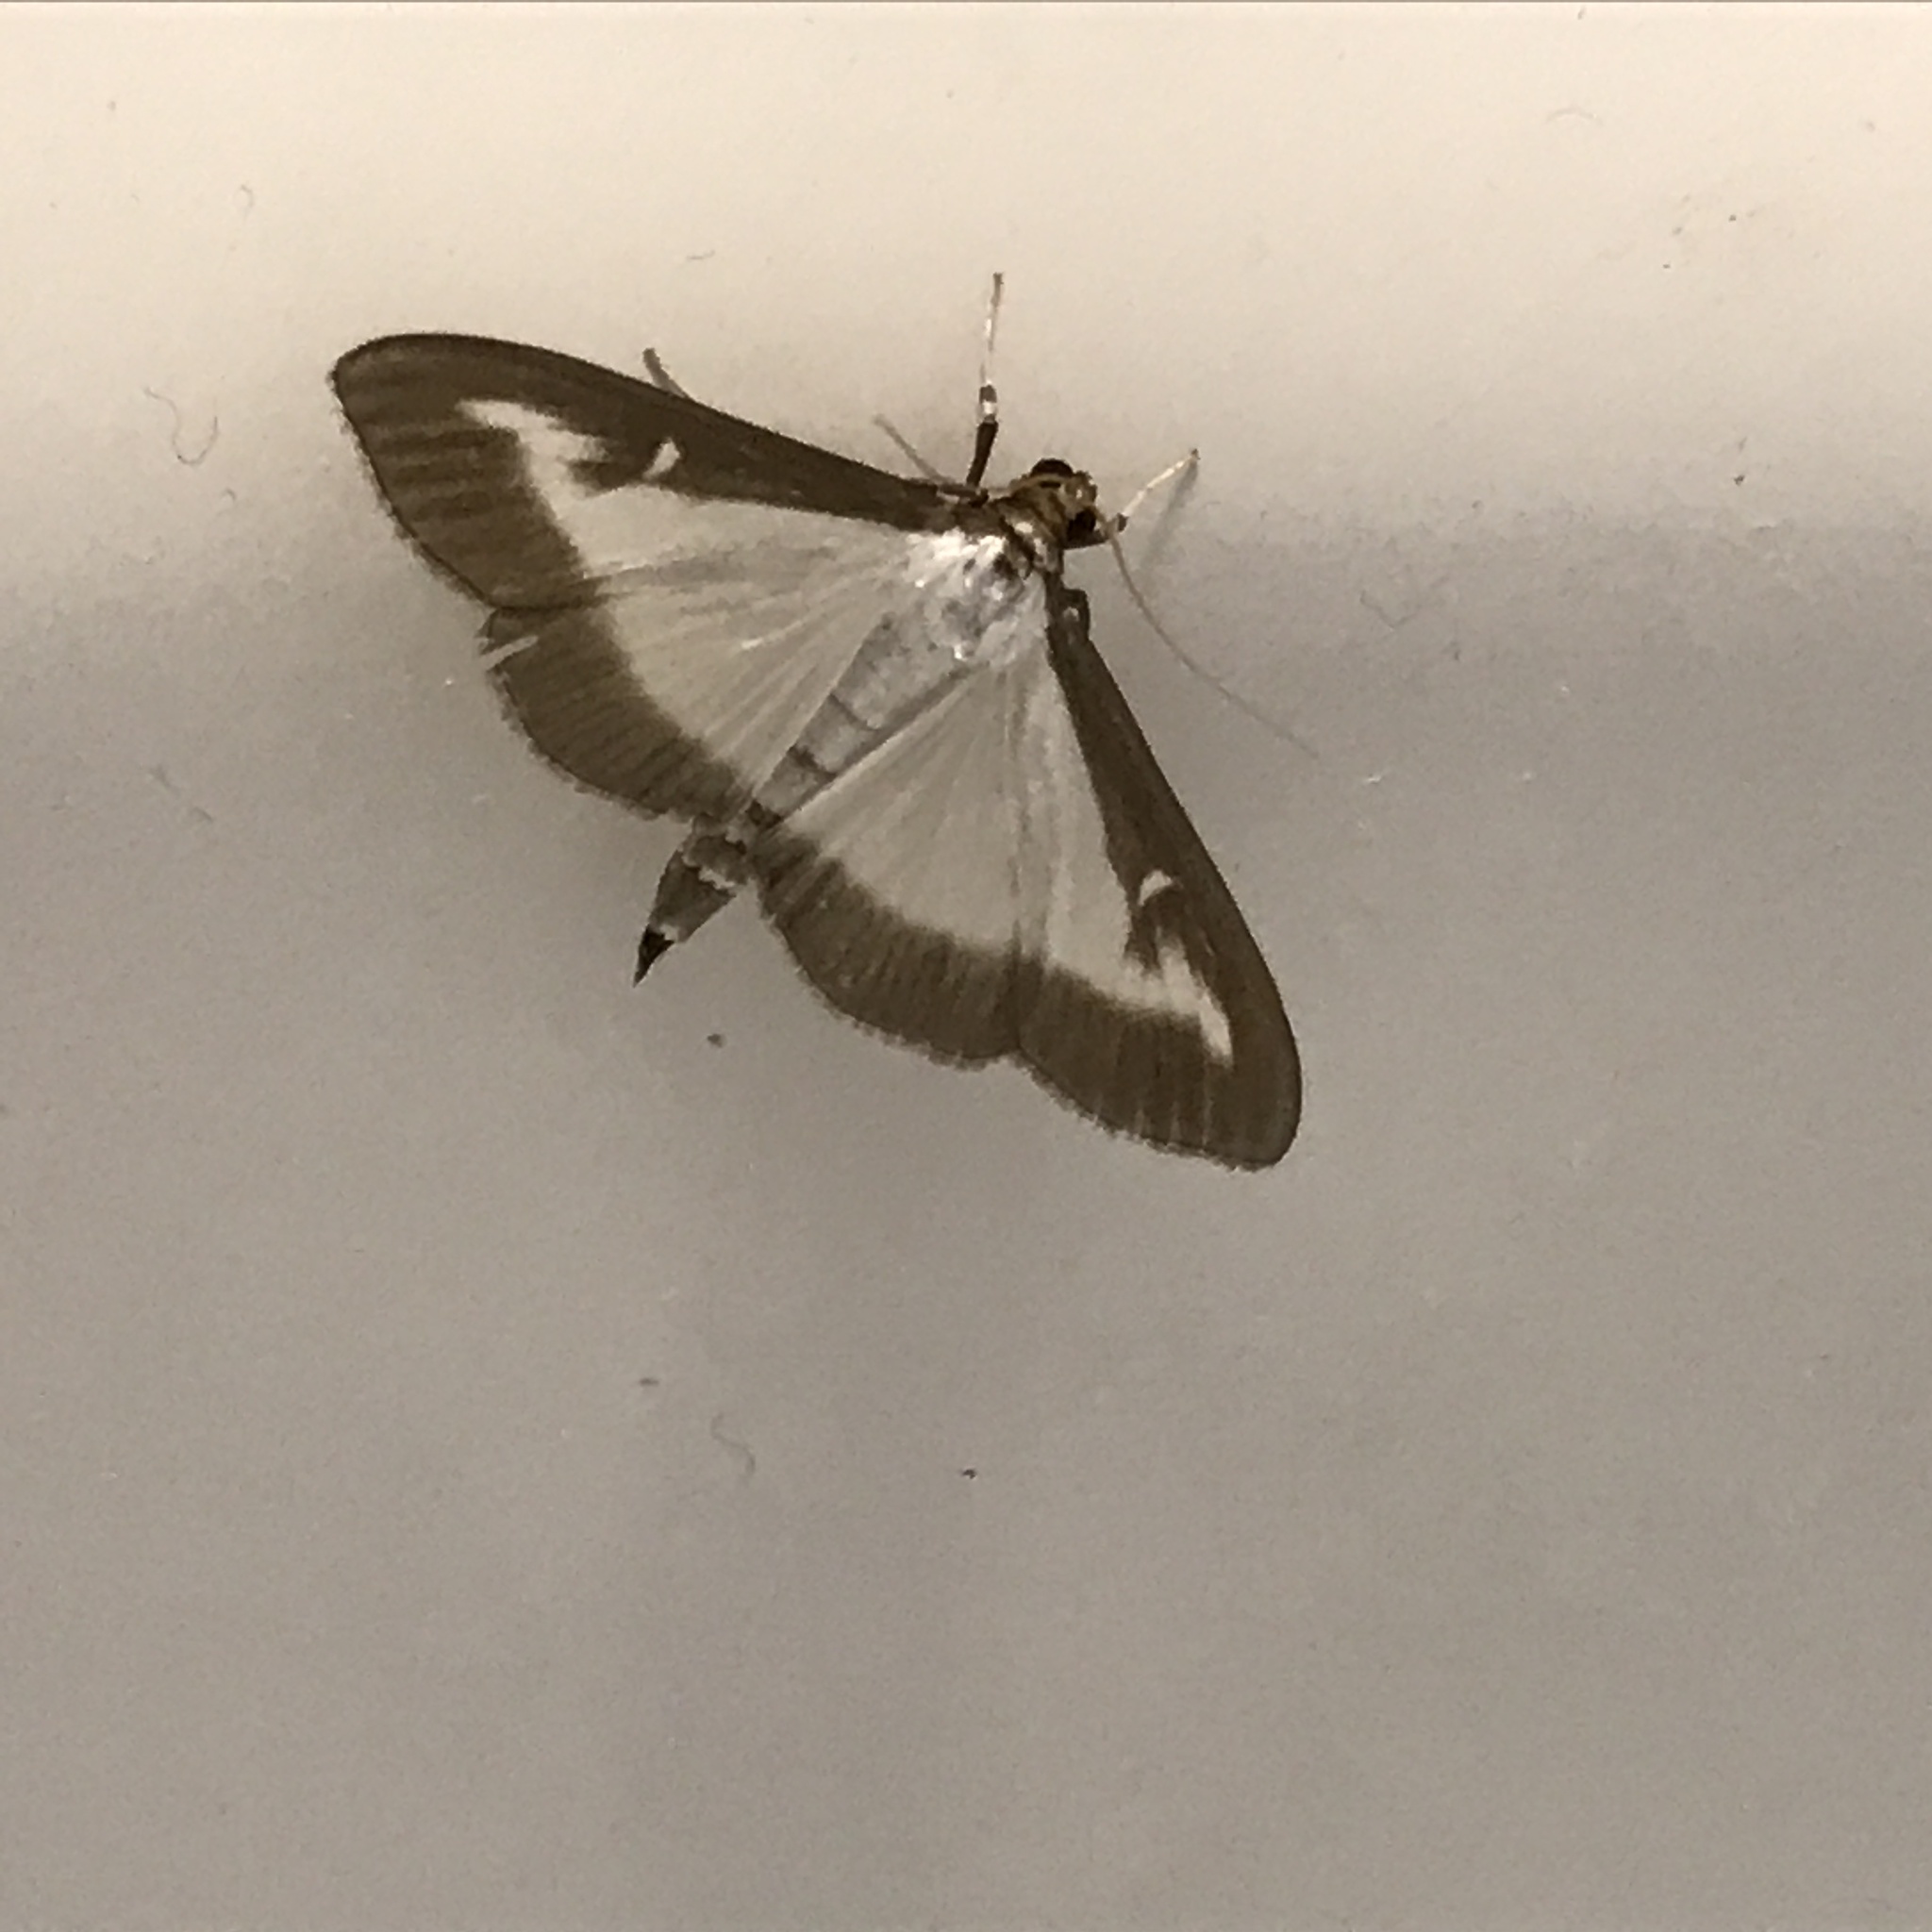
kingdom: Animalia
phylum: Arthropoda
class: Insecta
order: Lepidoptera
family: Crambidae
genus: Cydalima
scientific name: Cydalima perspectalis
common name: Box tree moth
